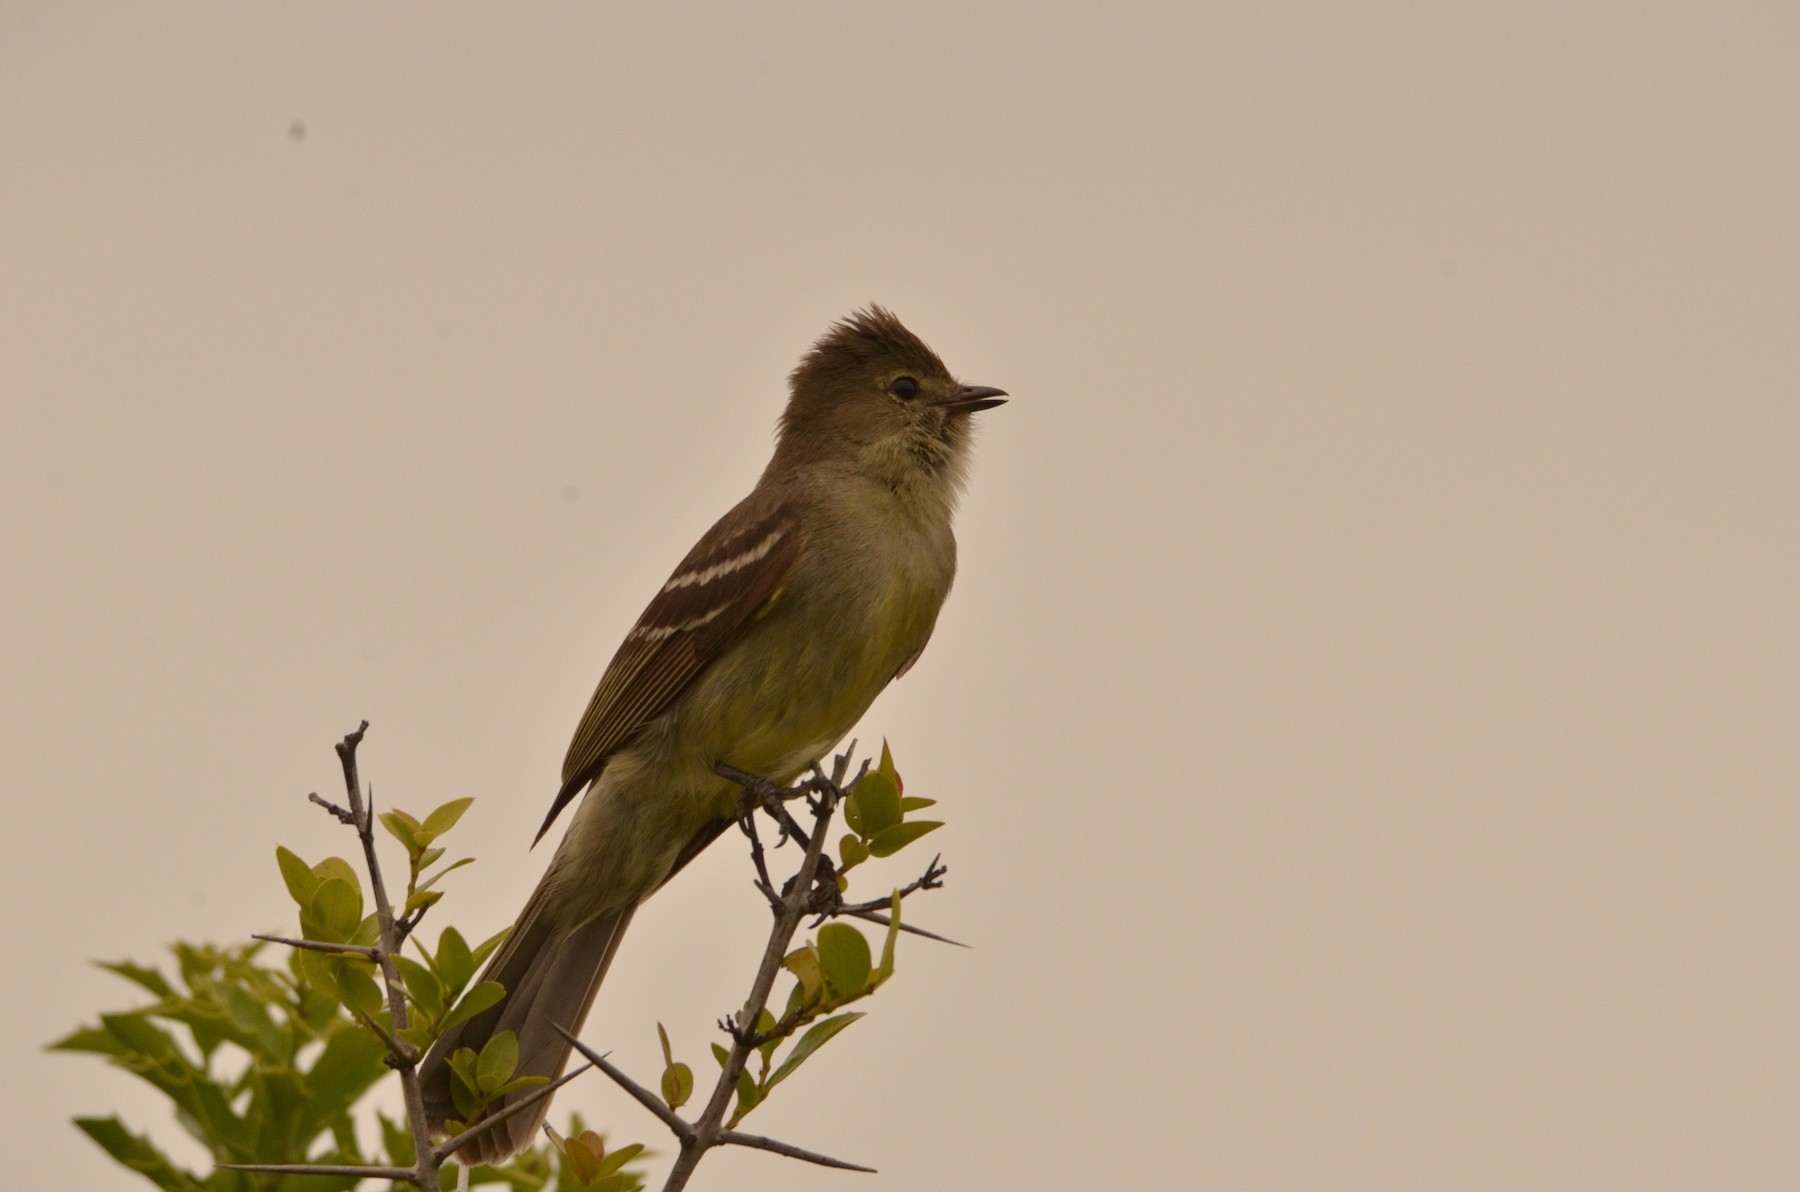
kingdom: Animalia
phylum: Chordata
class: Aves
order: Passeriformes
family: Tyrannidae
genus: Elaenia
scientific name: Elaenia sordida
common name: Small-headed elaenia
